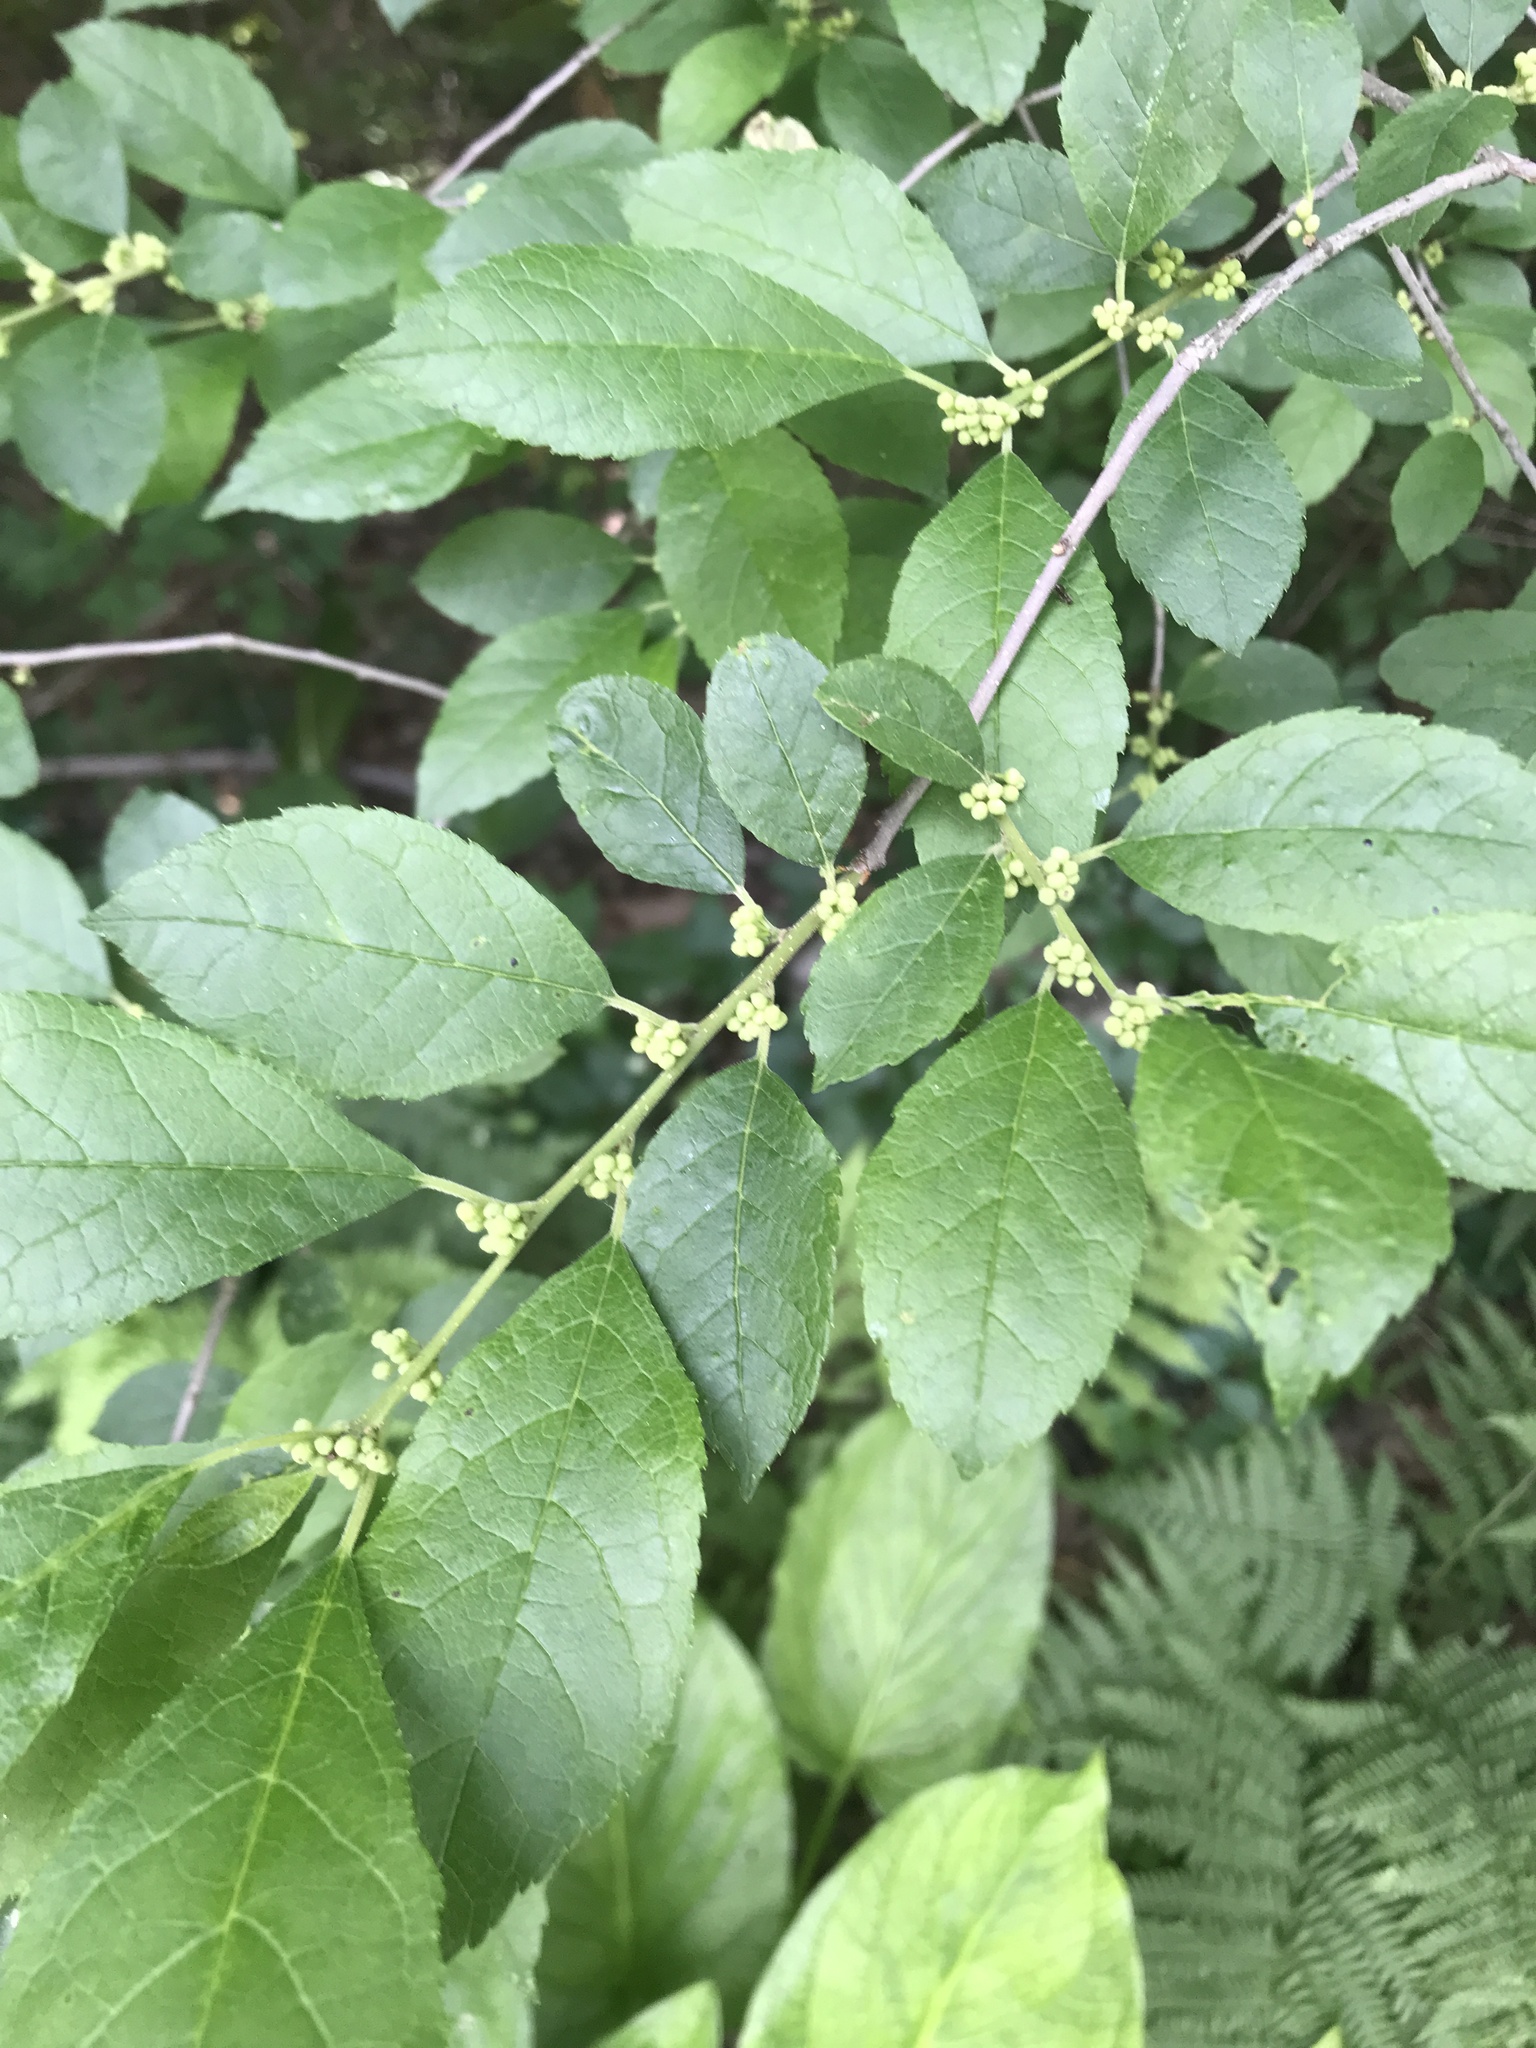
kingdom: Plantae
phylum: Tracheophyta
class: Magnoliopsida
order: Aquifoliales
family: Aquifoliaceae
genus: Ilex
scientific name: Ilex verticillata
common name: Virginia winterberry
